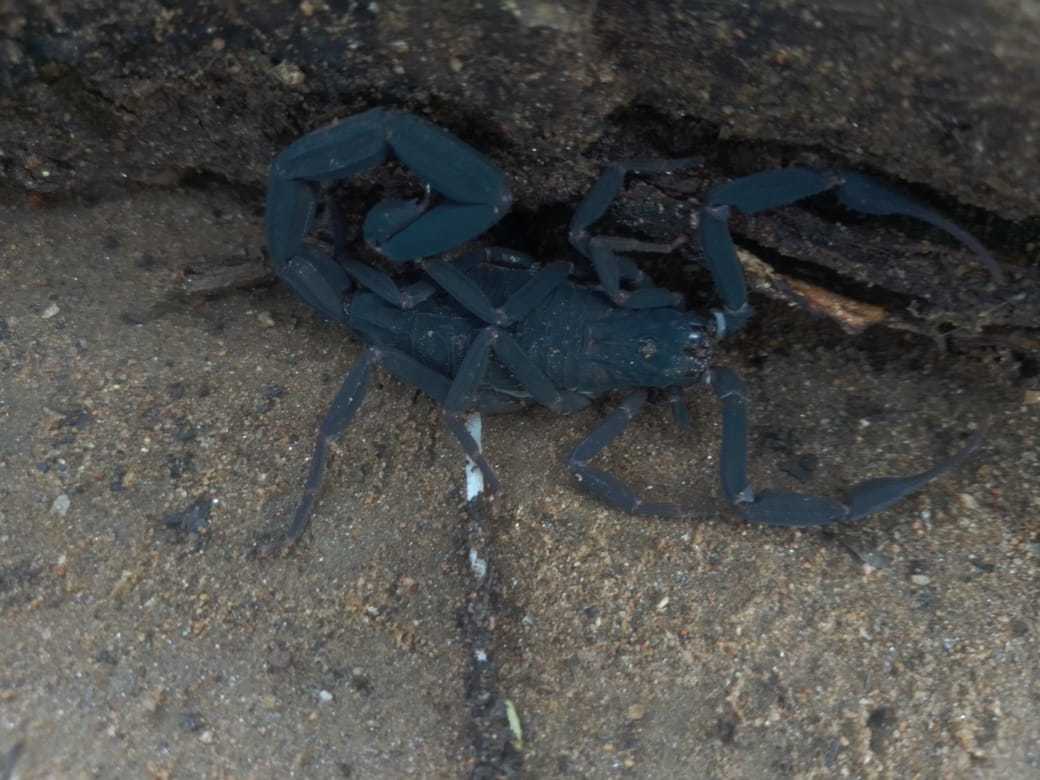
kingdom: Animalia
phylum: Arthropoda
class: Arachnida
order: Scorpiones
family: Buthidae
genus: Centruroides
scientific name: Centruroides nigrescens
